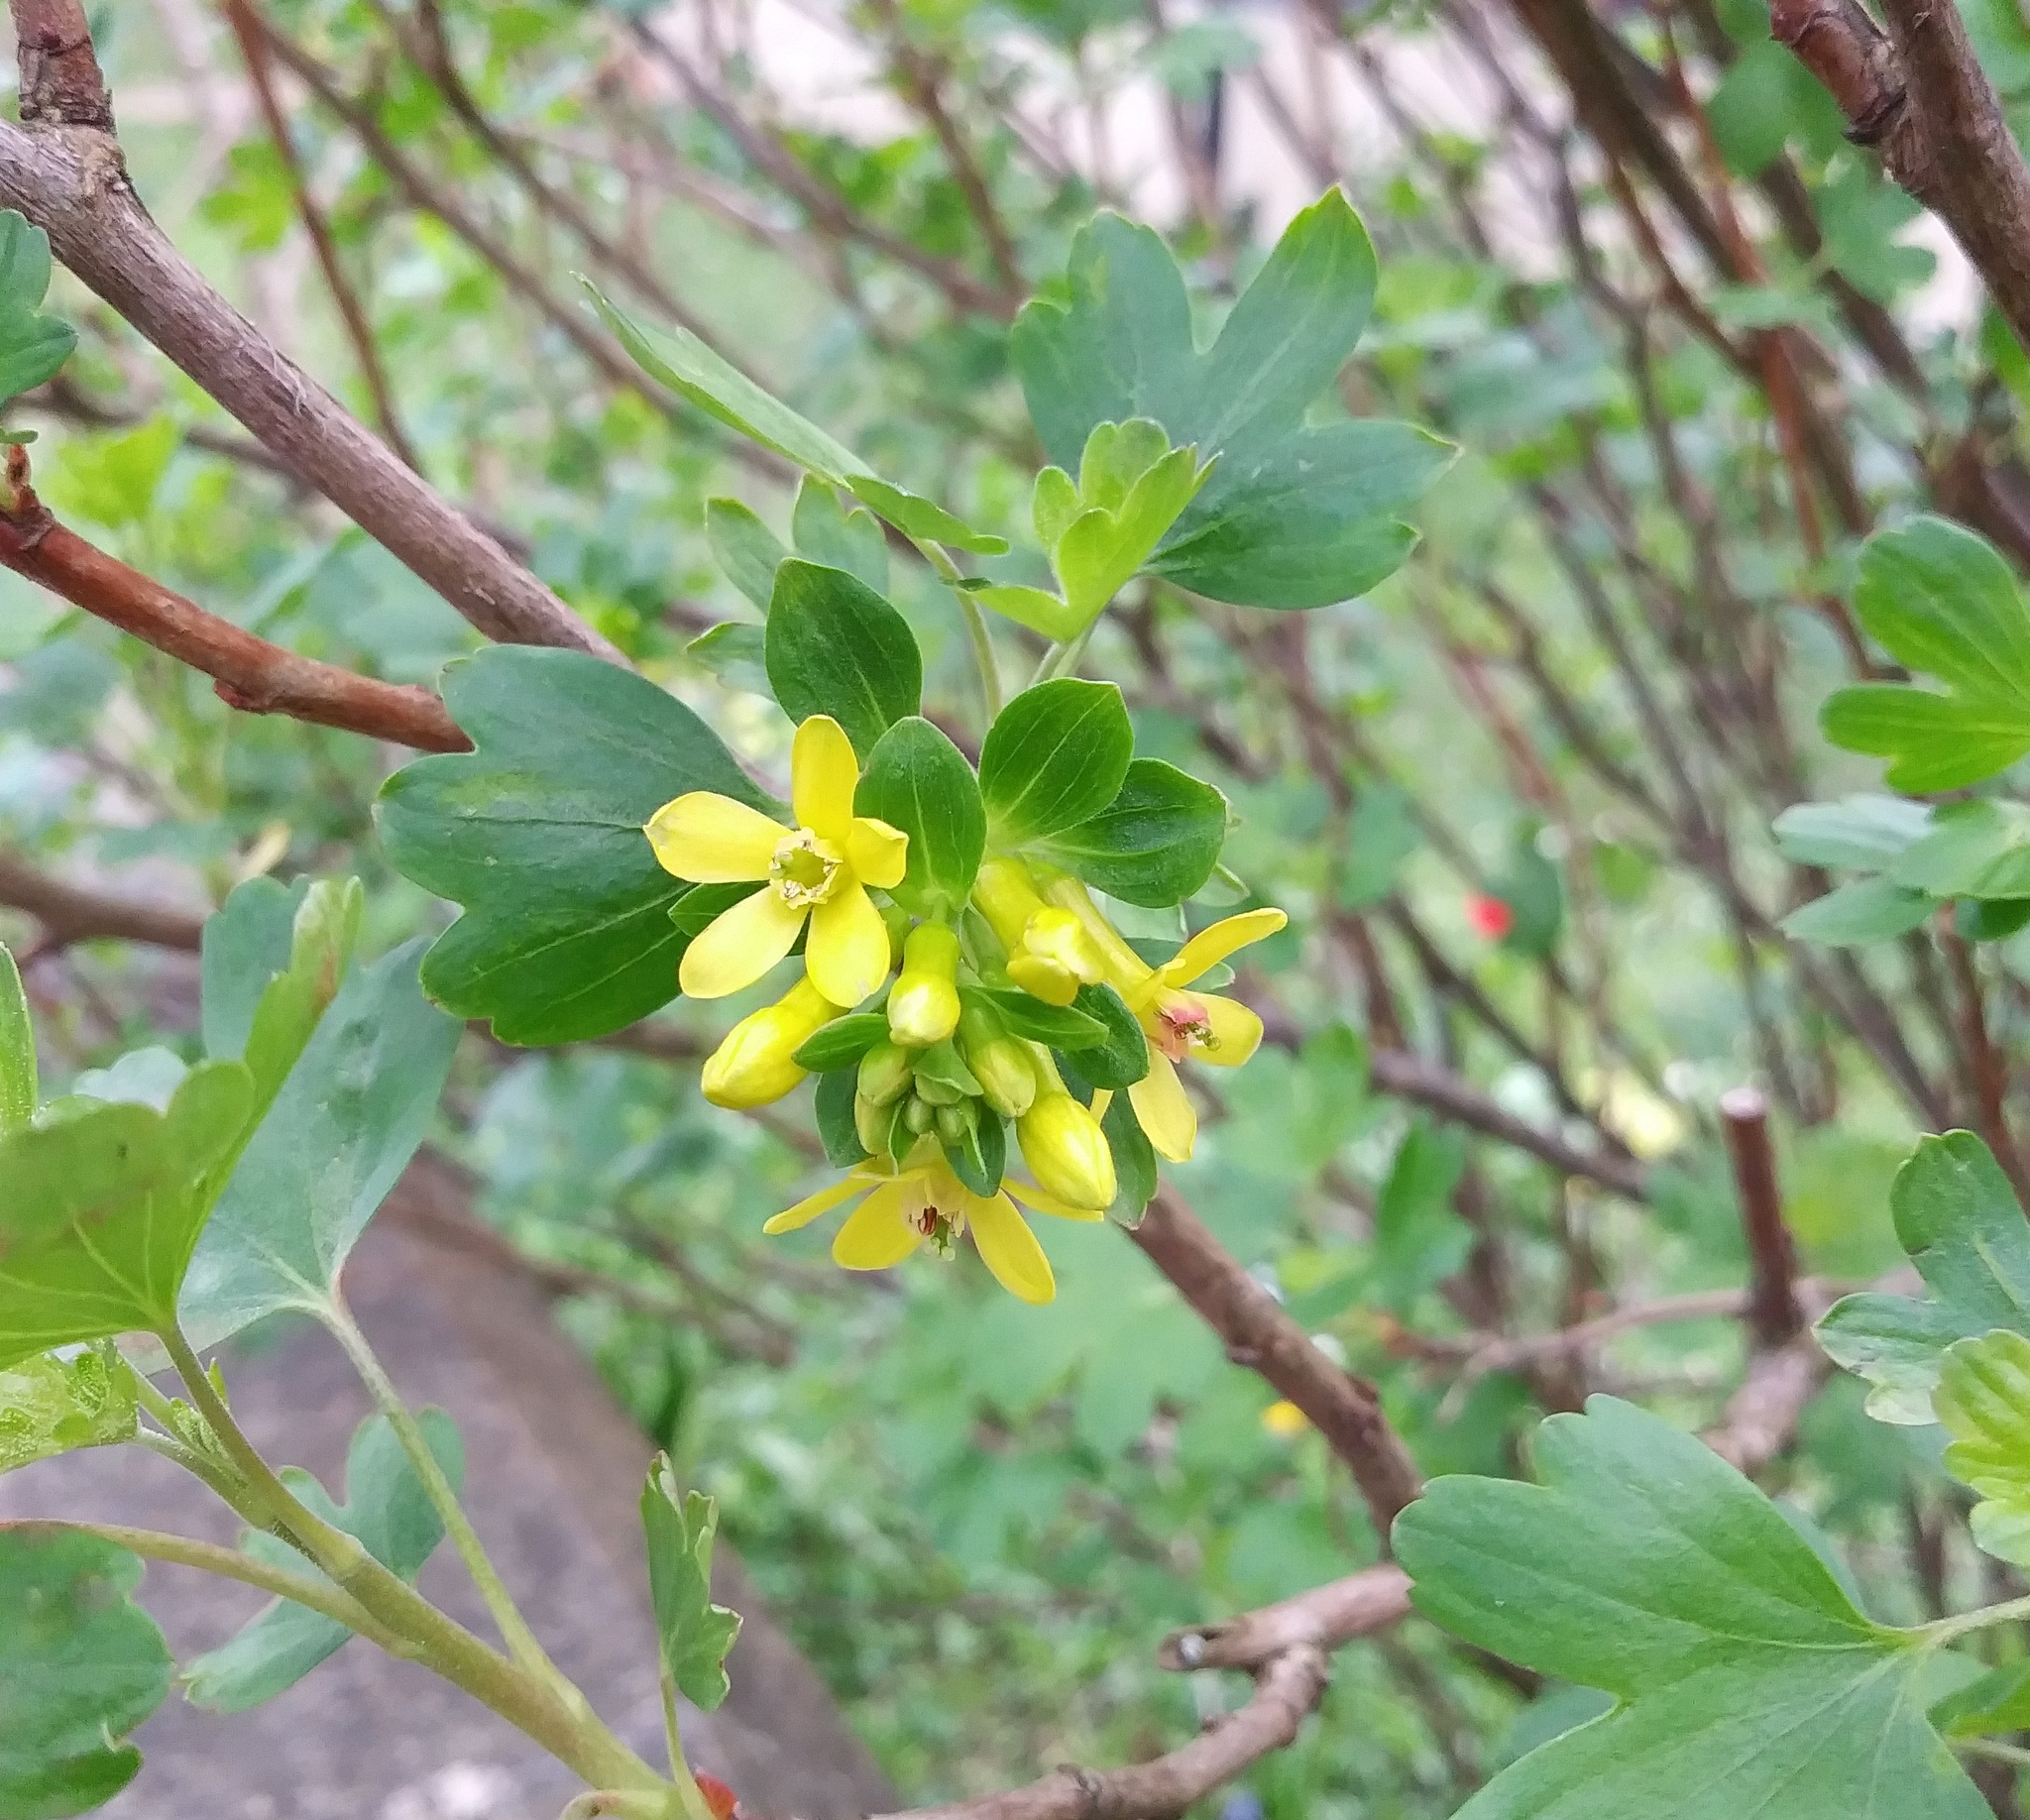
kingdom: Plantae
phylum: Tracheophyta
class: Magnoliopsida
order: Saxifragales
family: Grossulariaceae
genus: Ribes
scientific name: Ribes aureum
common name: Golden currant
